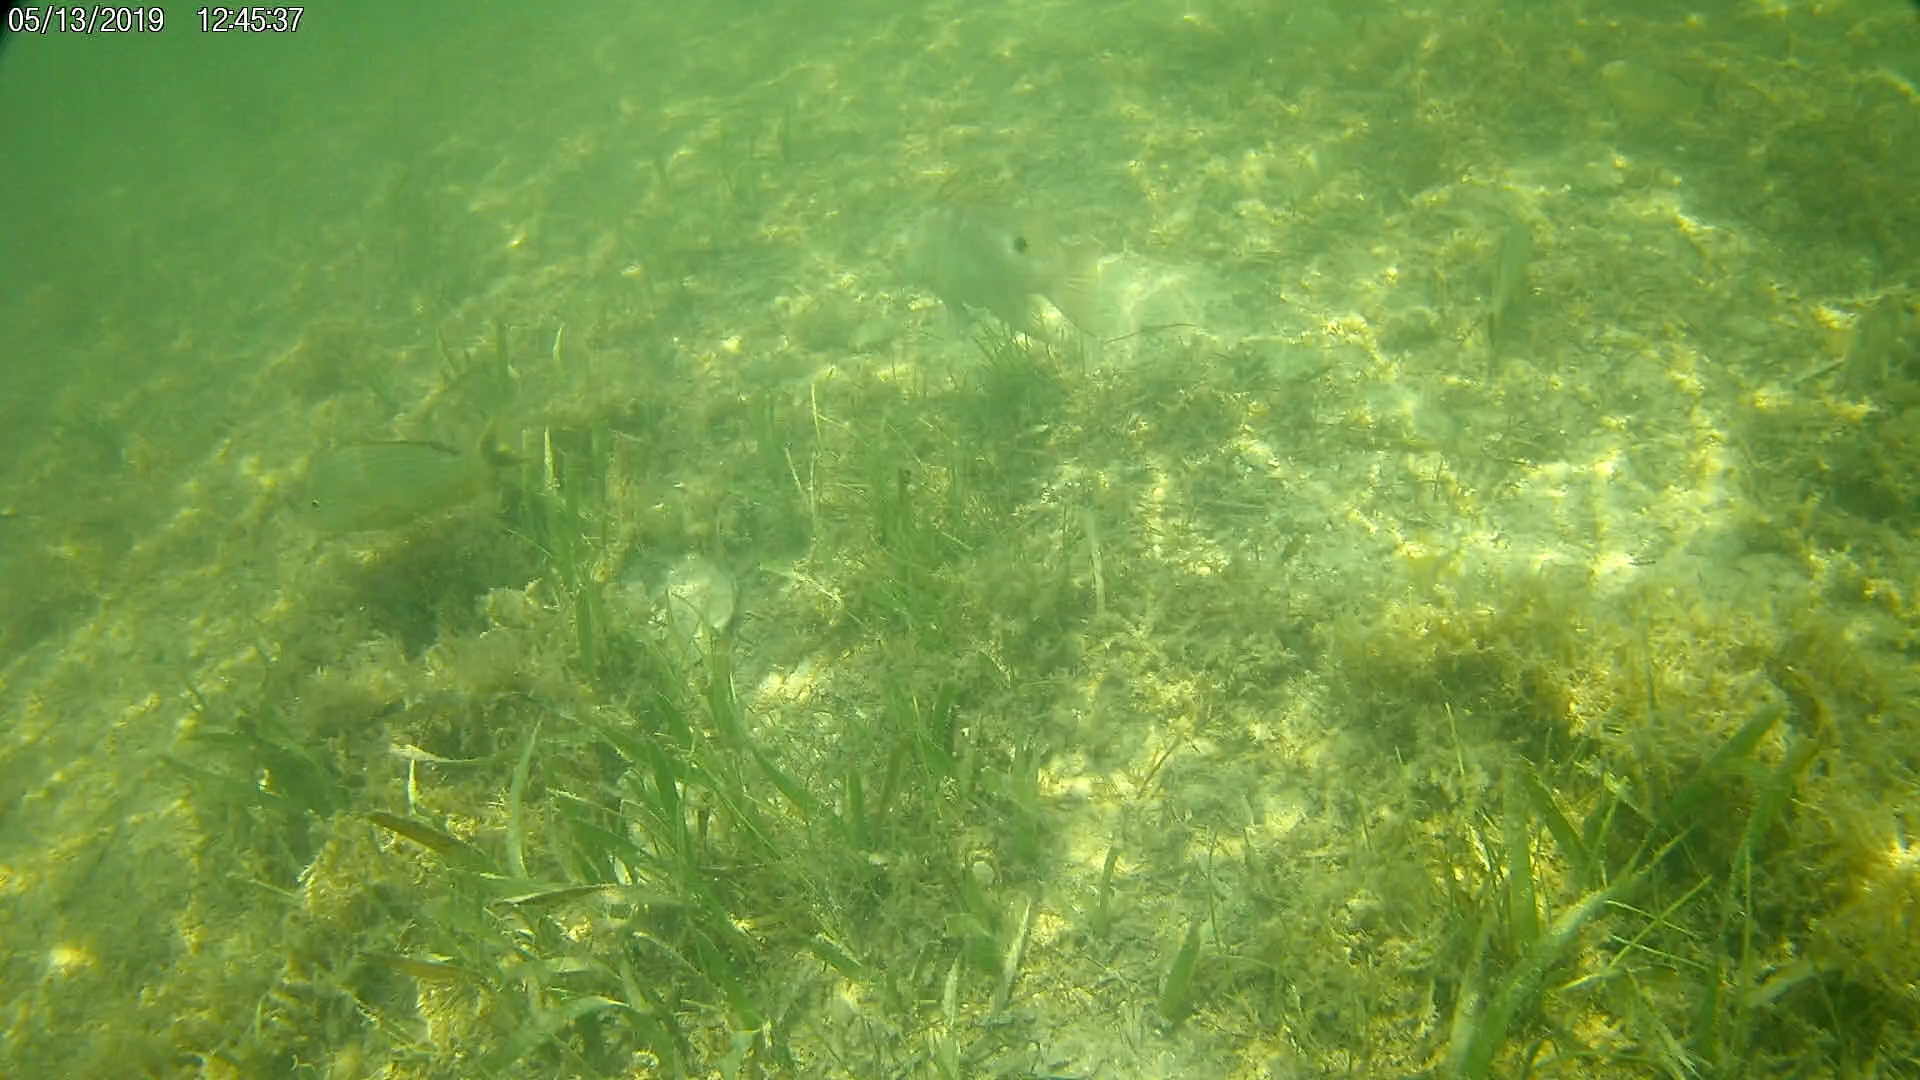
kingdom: Animalia
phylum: Chordata
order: Perciformes
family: Labridae
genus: Lachnolaimus
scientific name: Lachnolaimus maximus
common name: Hogfish
